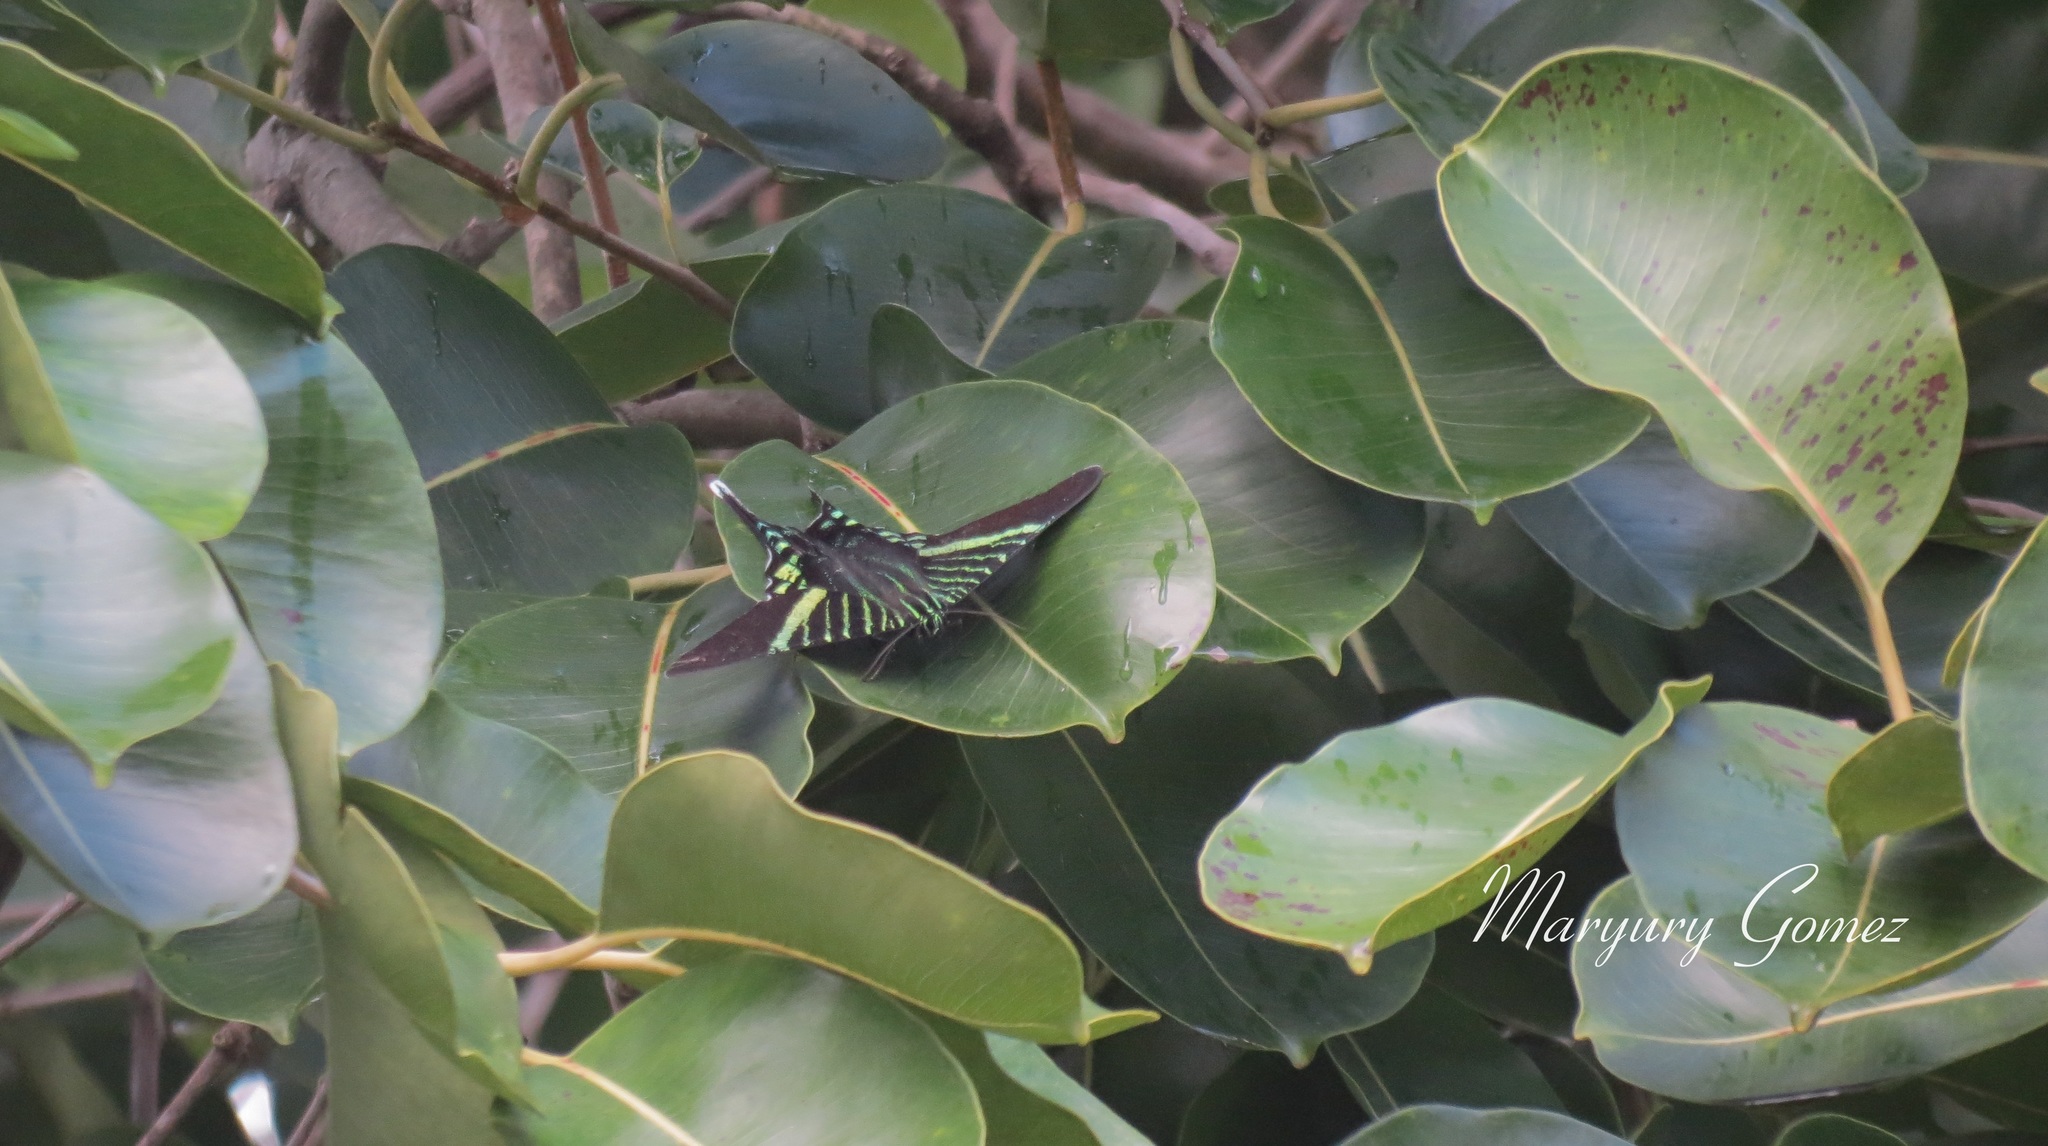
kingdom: Animalia
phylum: Arthropoda
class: Insecta
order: Lepidoptera
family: Uraniidae
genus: Urania
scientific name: Urania fulgens
